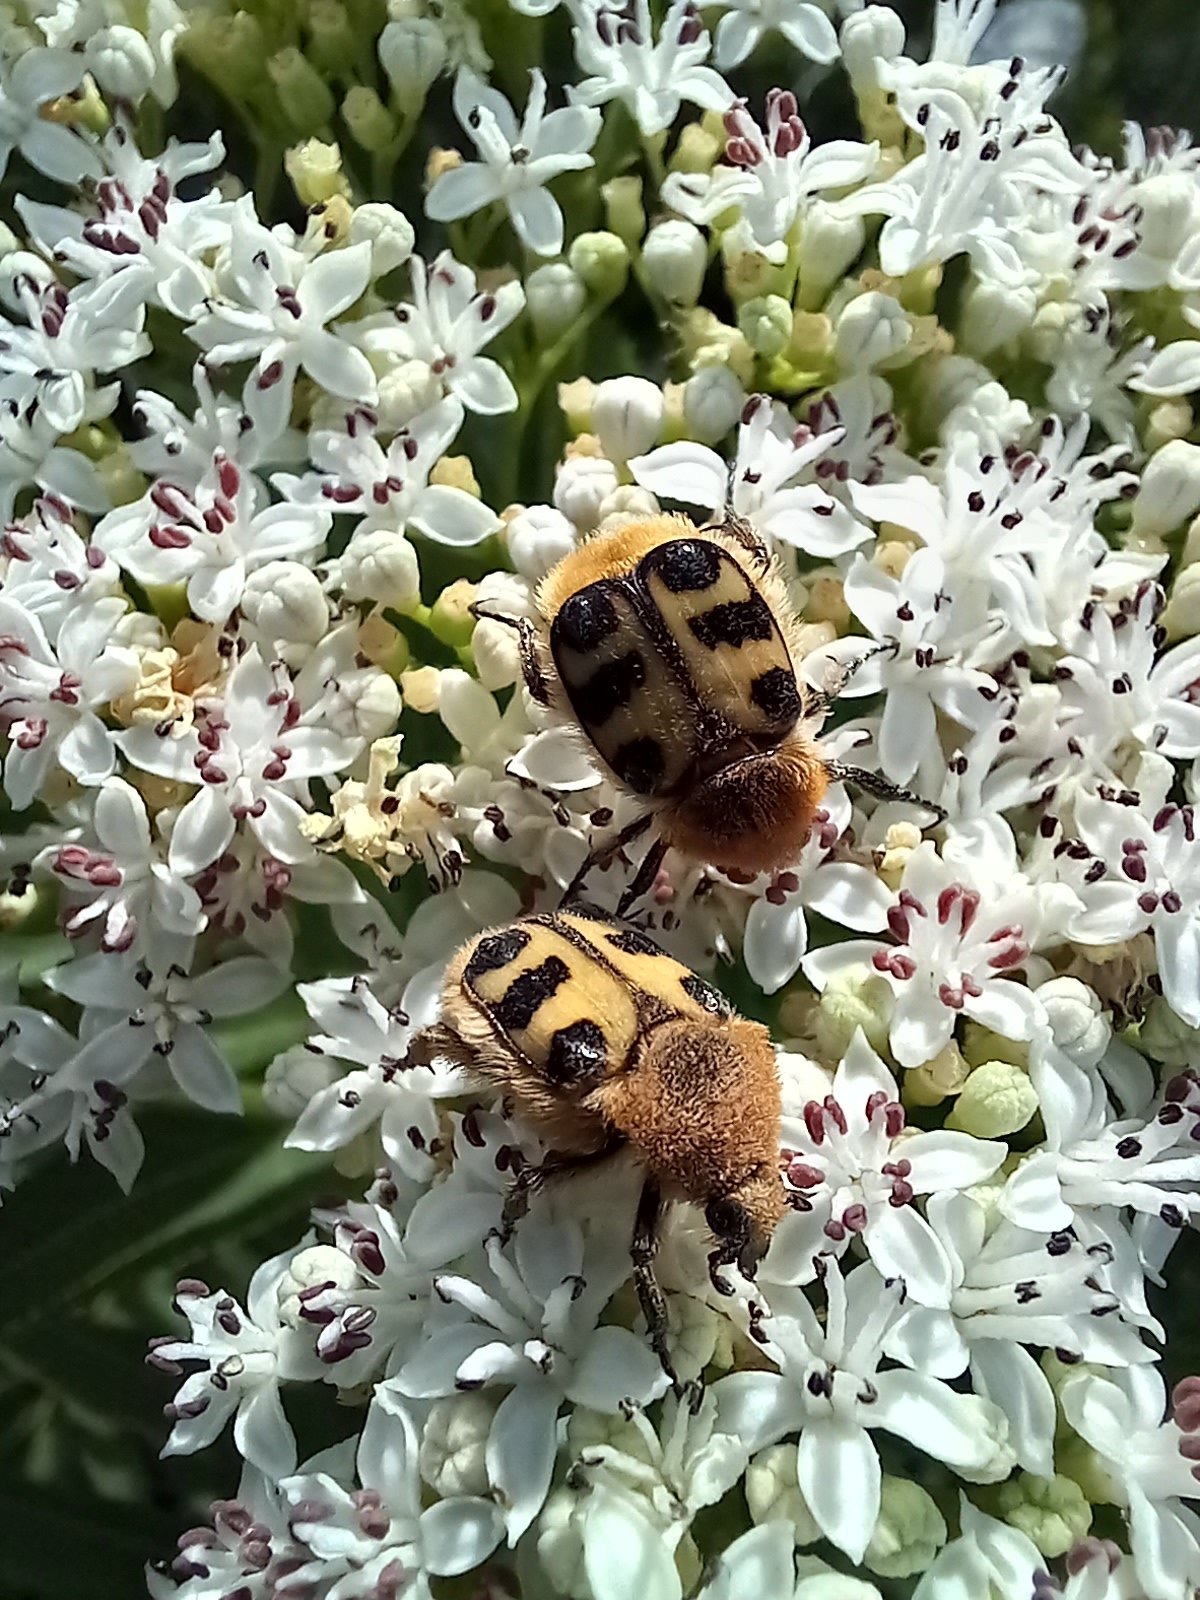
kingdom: Animalia
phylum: Arthropoda
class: Insecta
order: Coleoptera
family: Scarabaeidae
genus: Trichius
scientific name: Trichius gallicus
